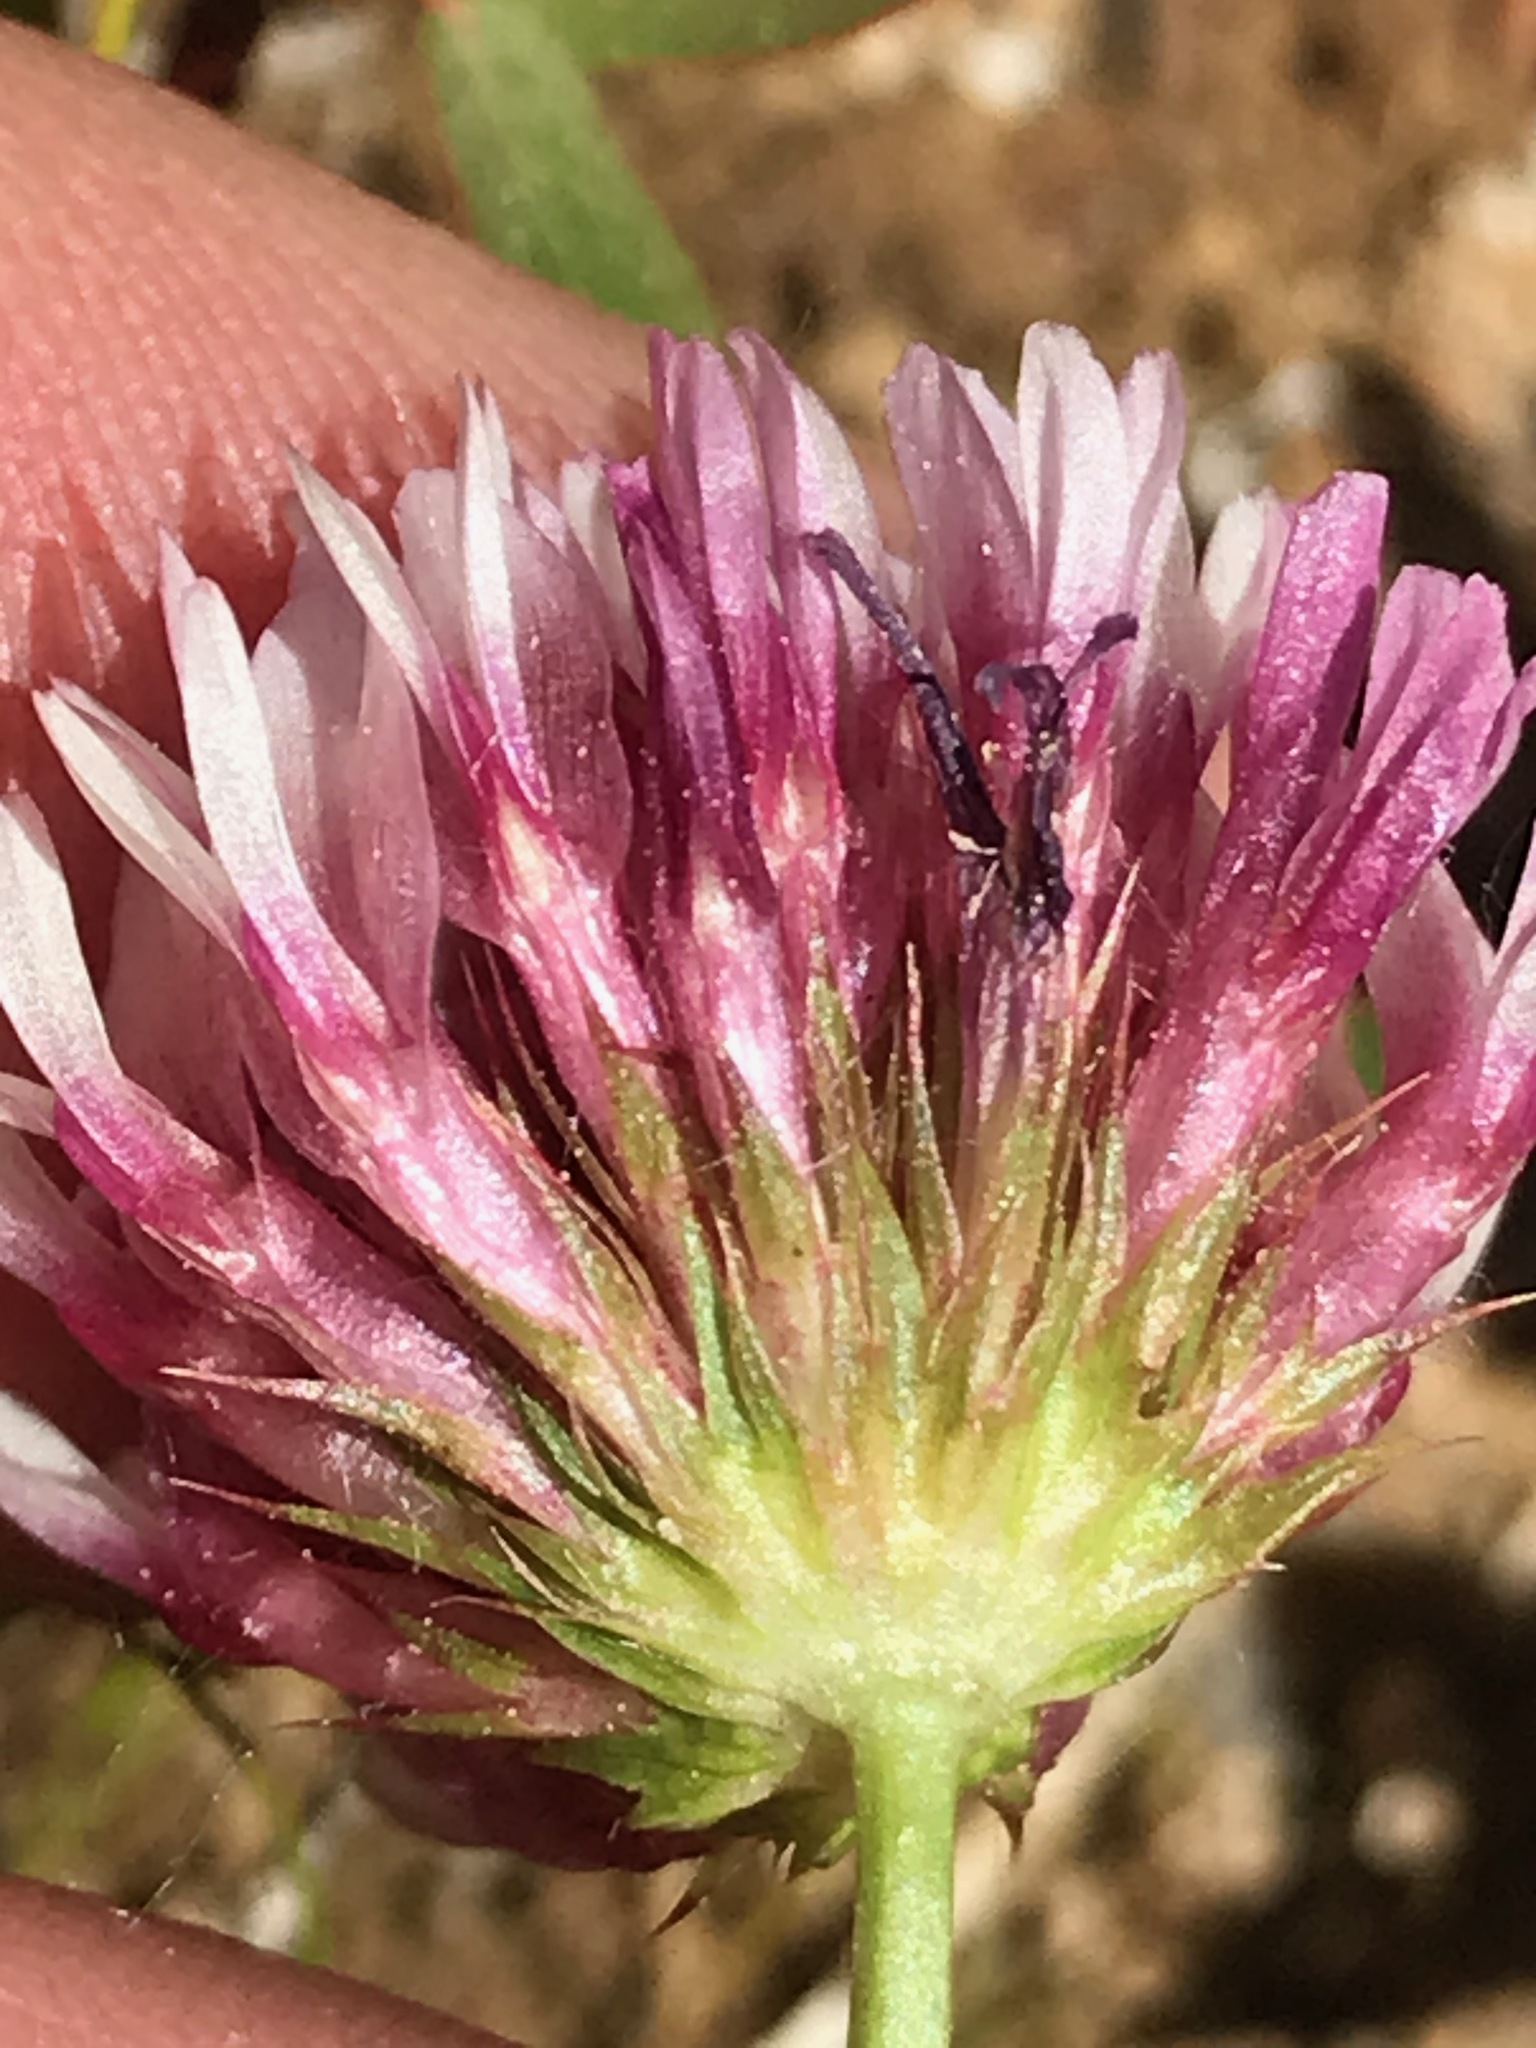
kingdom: Plantae
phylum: Tracheophyta
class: Magnoliopsida
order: Fabales
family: Fabaceae
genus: Trifolium
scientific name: Trifolium wormskioldii
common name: Springbank clover
